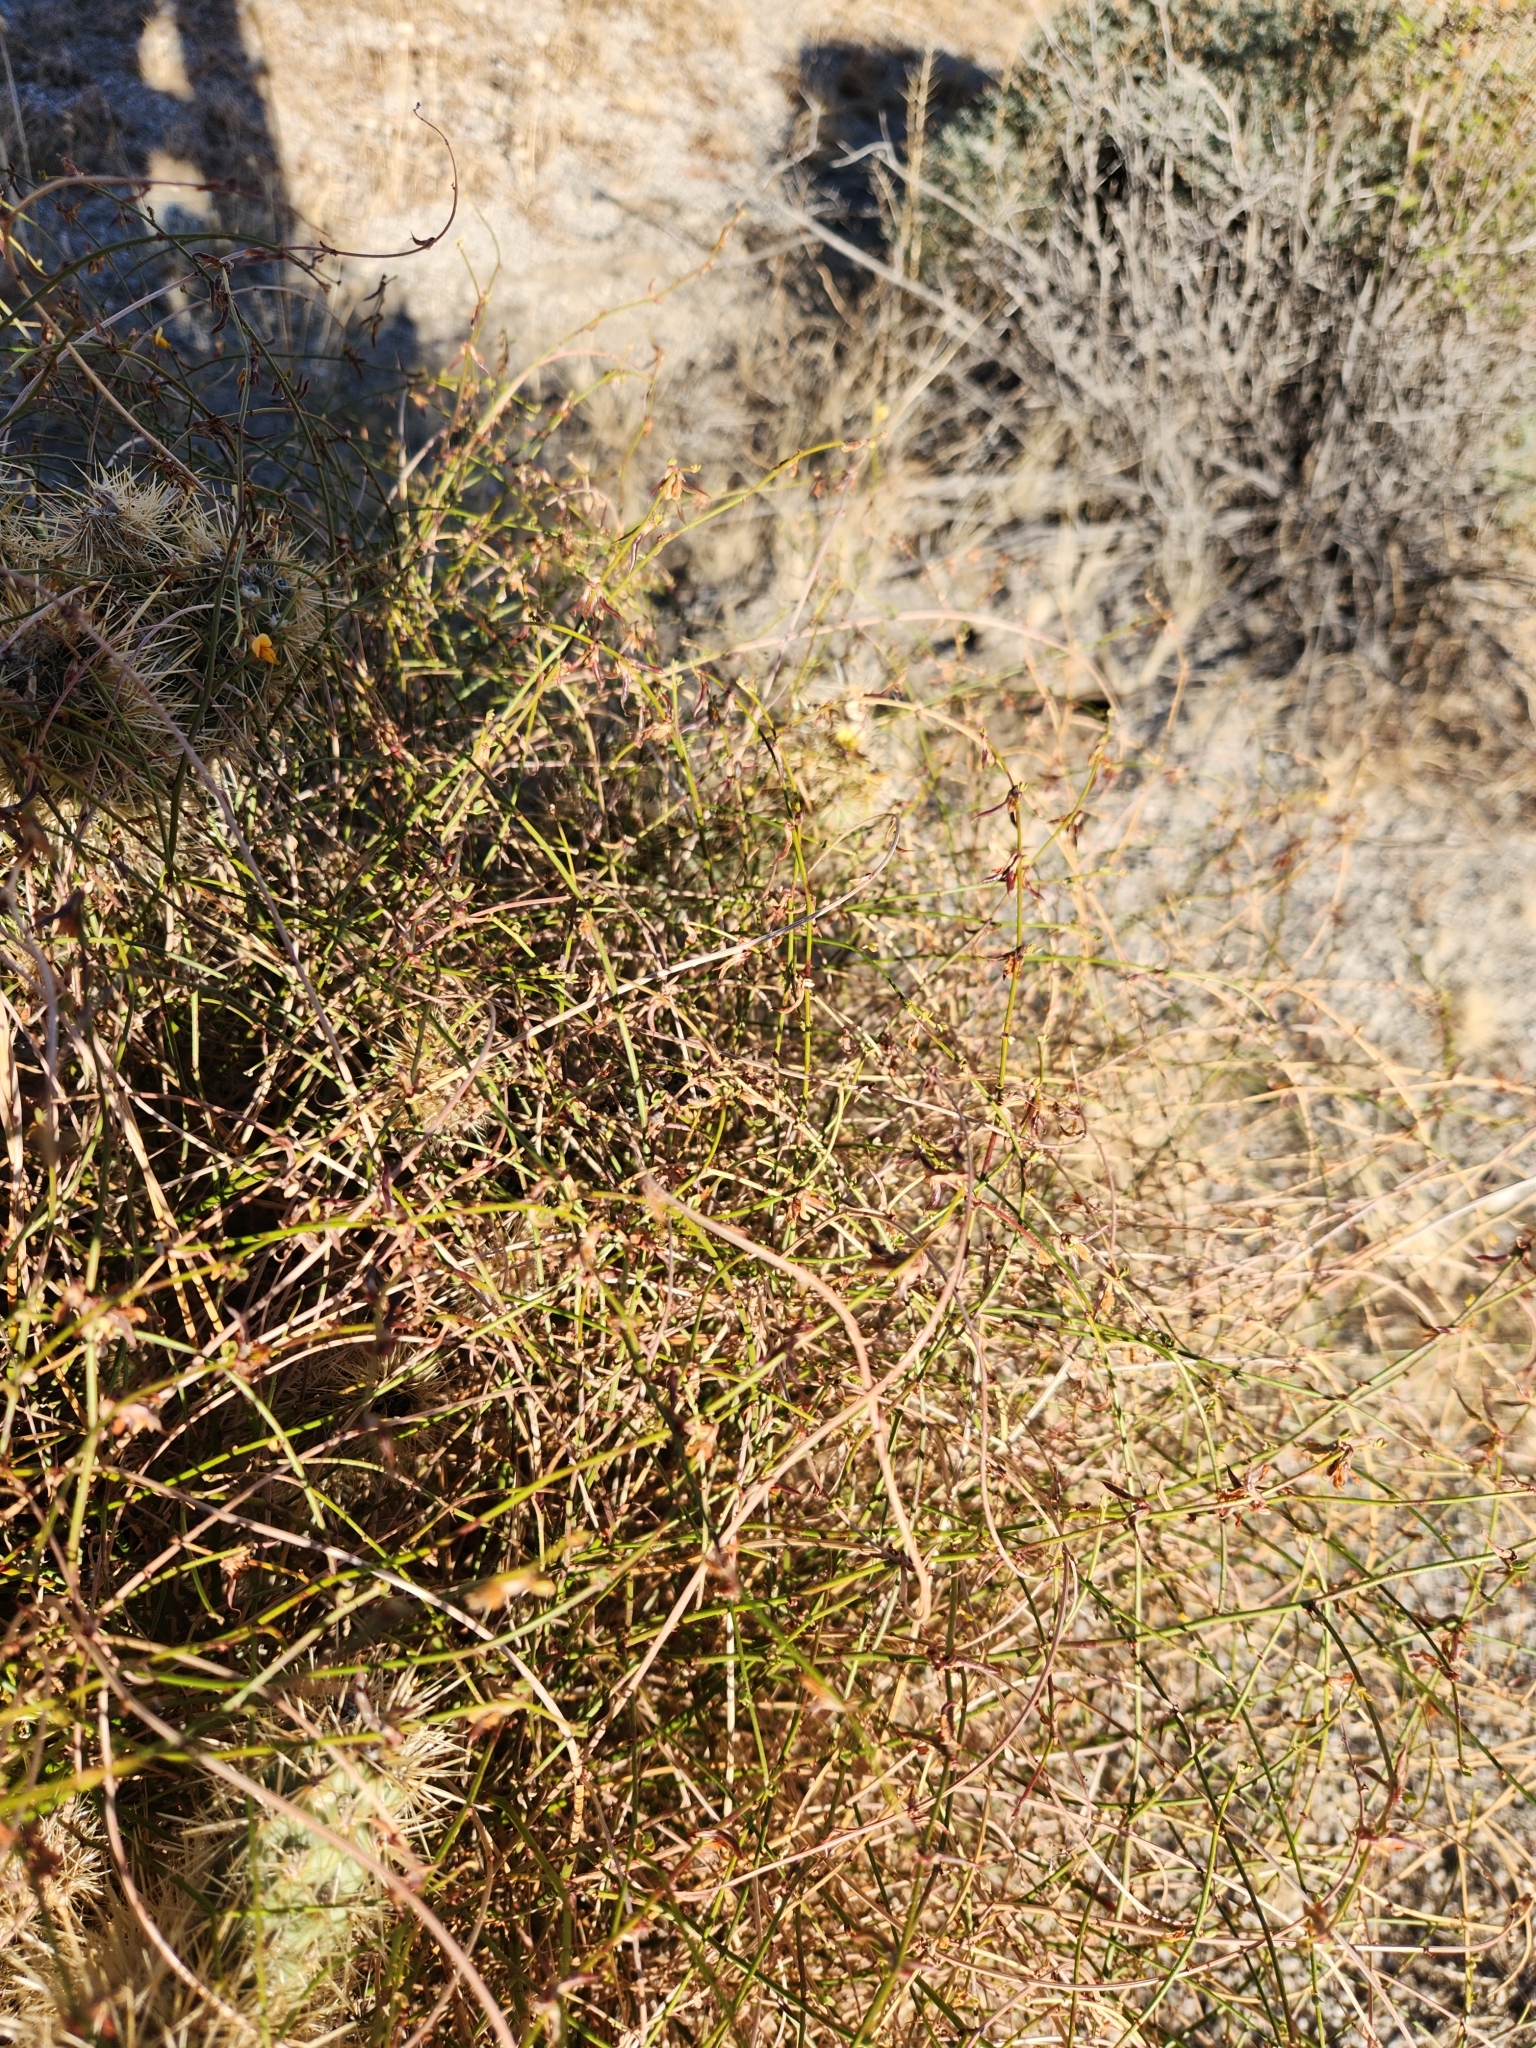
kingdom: Plantae
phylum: Tracheophyta
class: Magnoliopsida
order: Fabales
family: Fabaceae
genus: Acmispon
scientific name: Acmispon glaber
